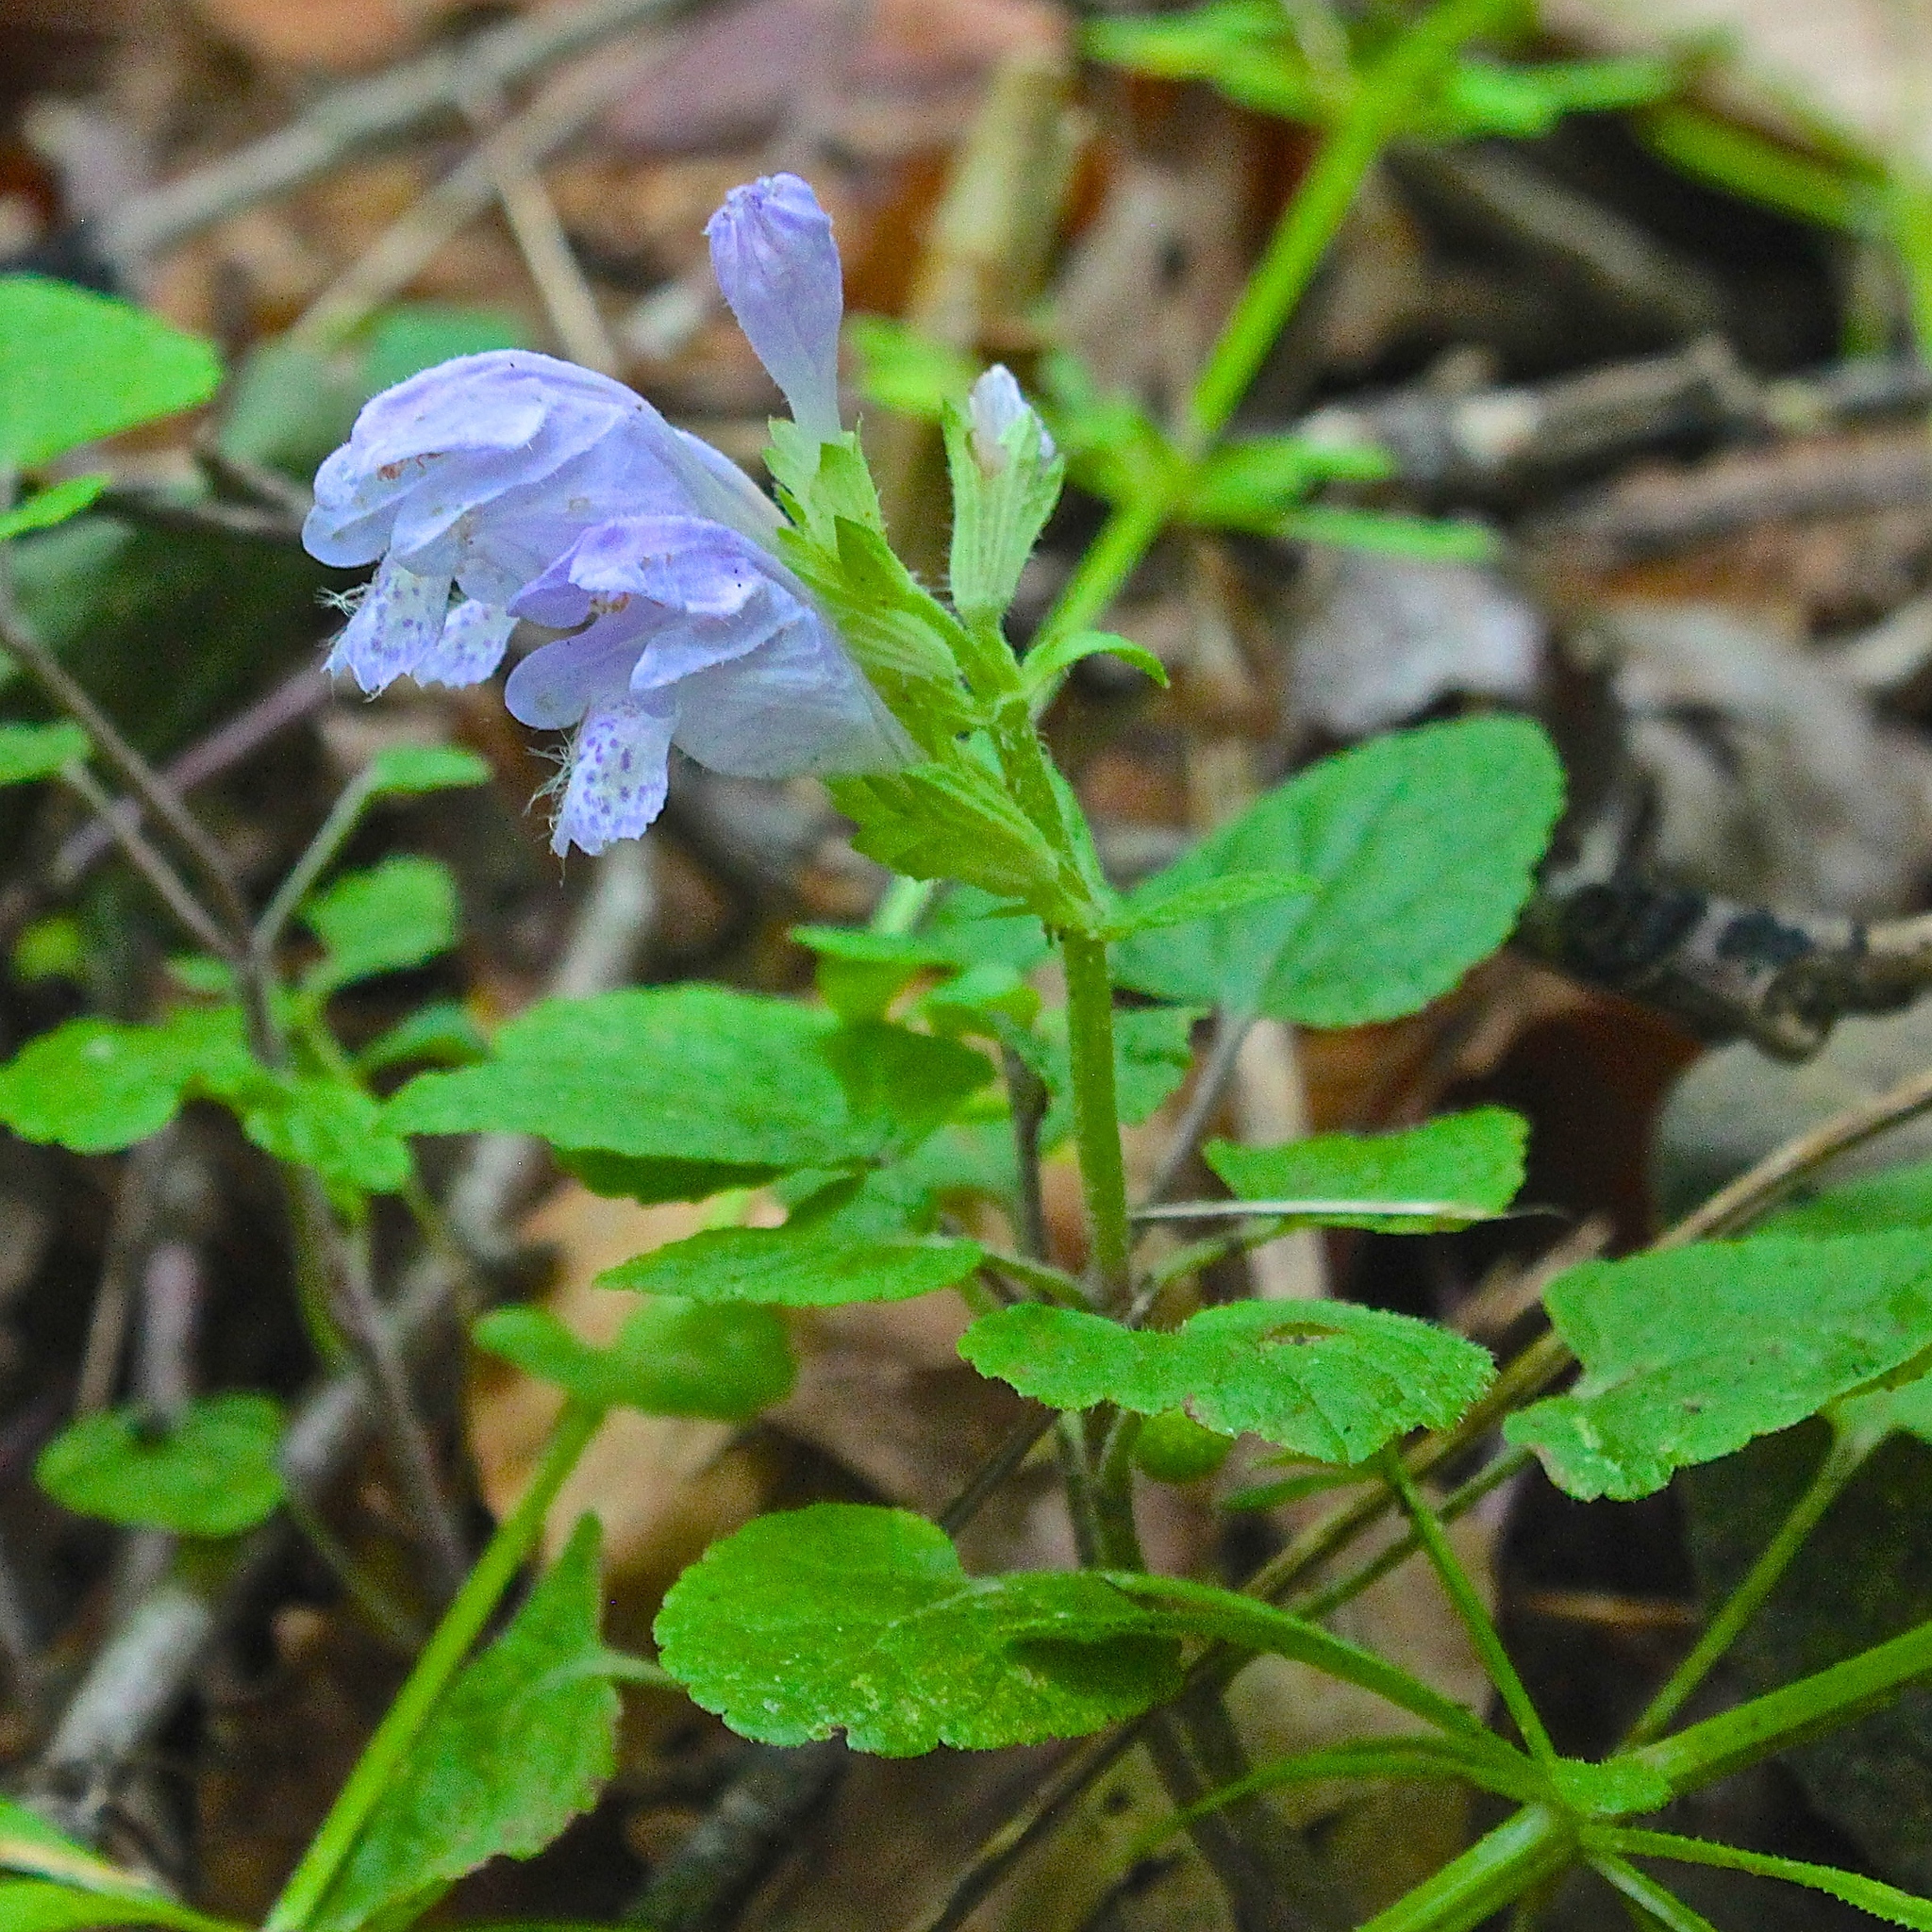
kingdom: Plantae
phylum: Tracheophyta
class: Magnoliopsida
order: Lamiales
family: Lamiaceae
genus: Meehania
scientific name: Meehania cordata
